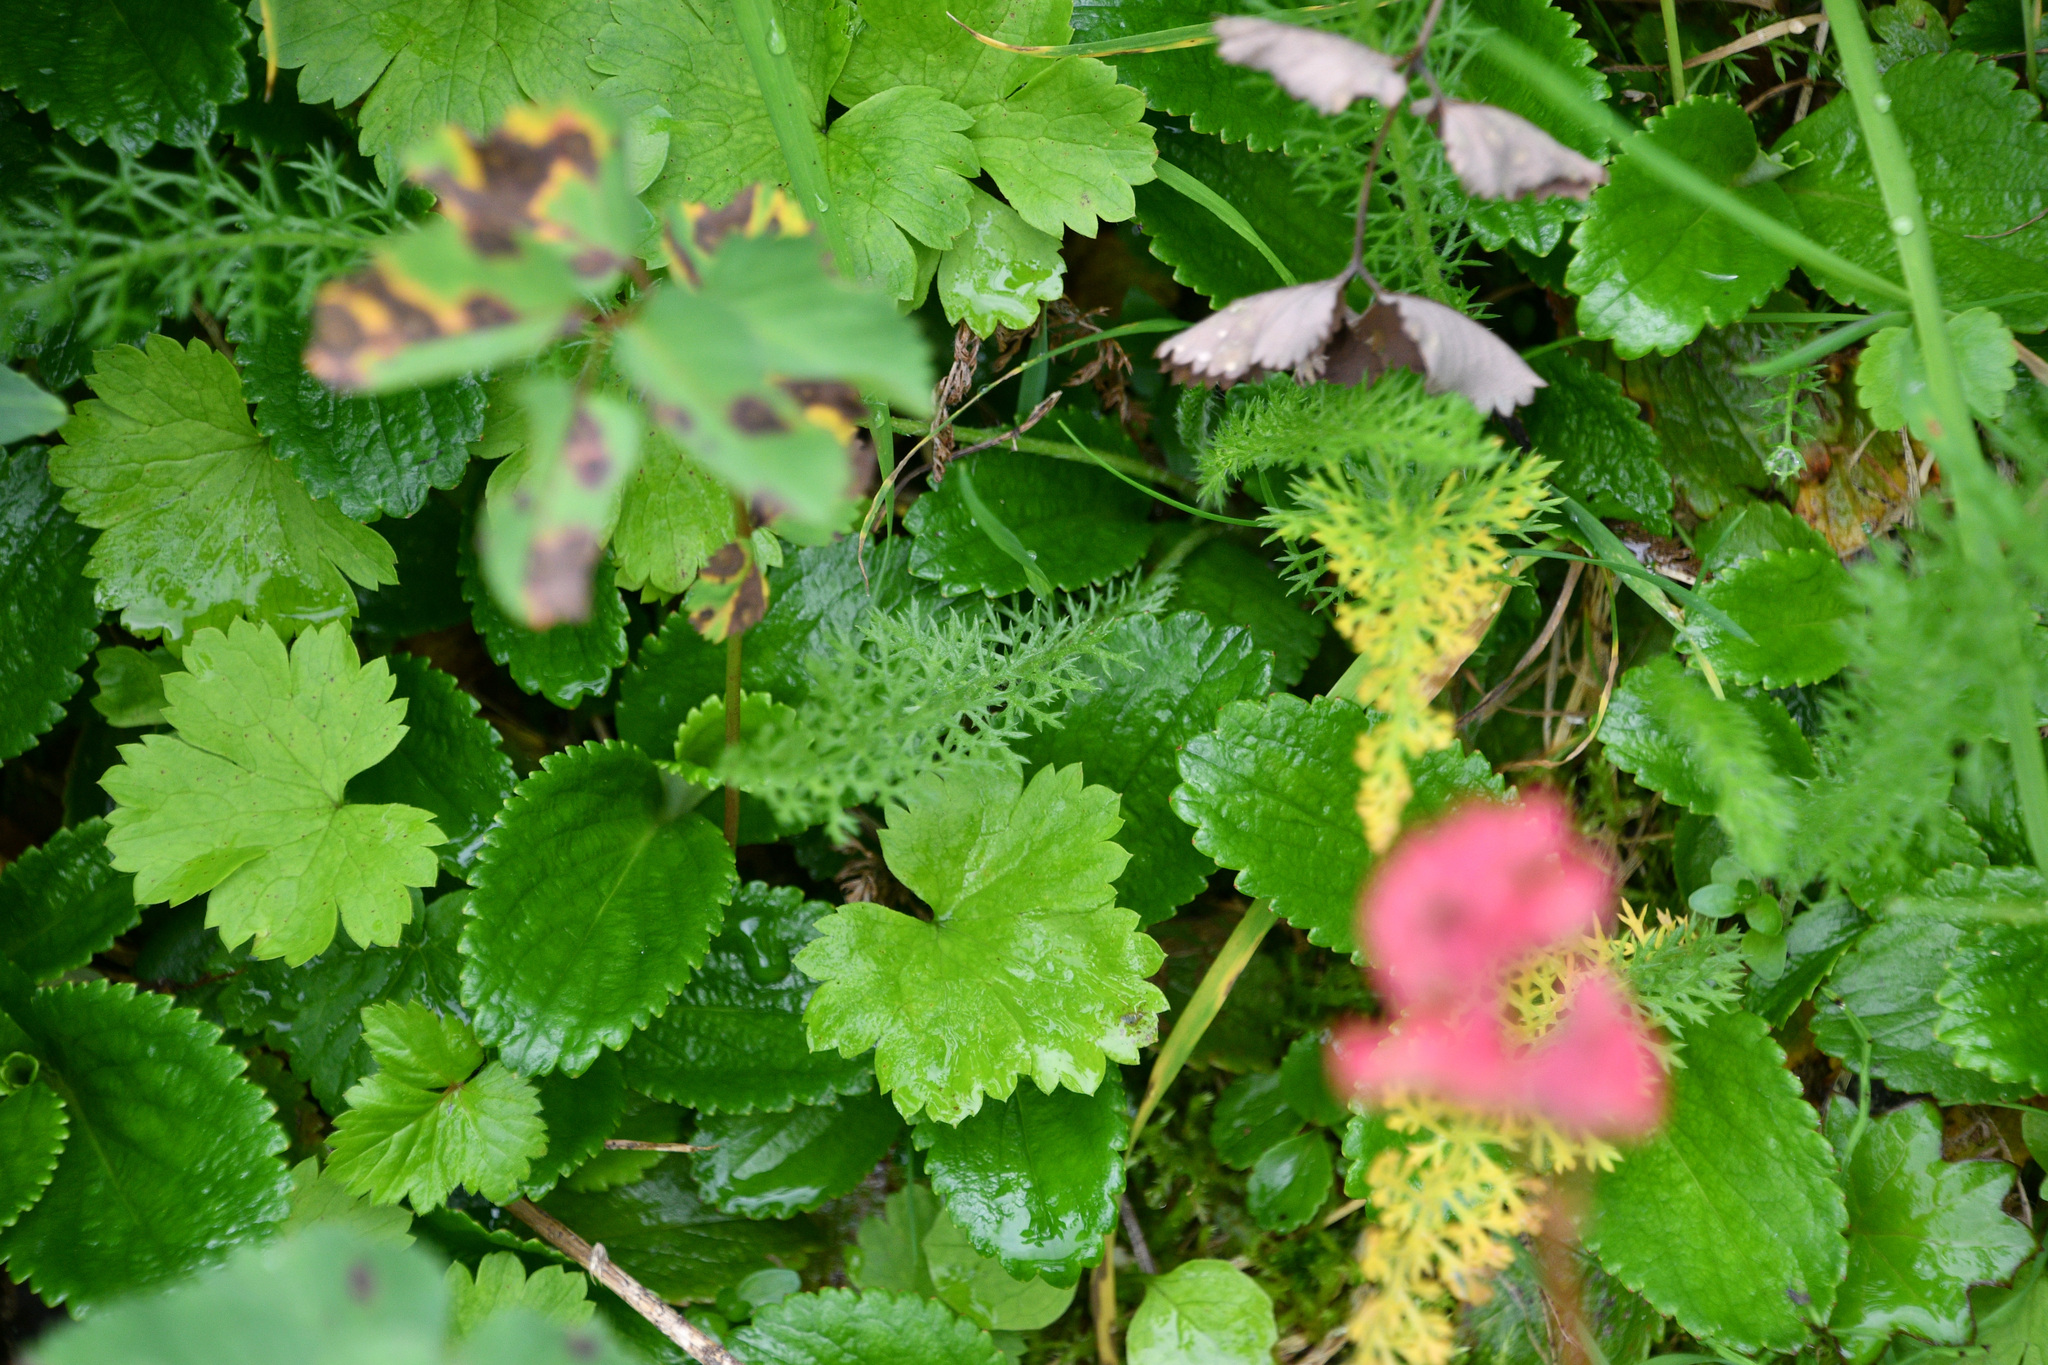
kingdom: Plantae
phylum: Tracheophyta
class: Magnoliopsida
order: Saxifragales
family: Saxifragaceae
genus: Leptarrhena
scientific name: Leptarrhena pyrolifolia
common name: Leatherleaf-saxifrage
